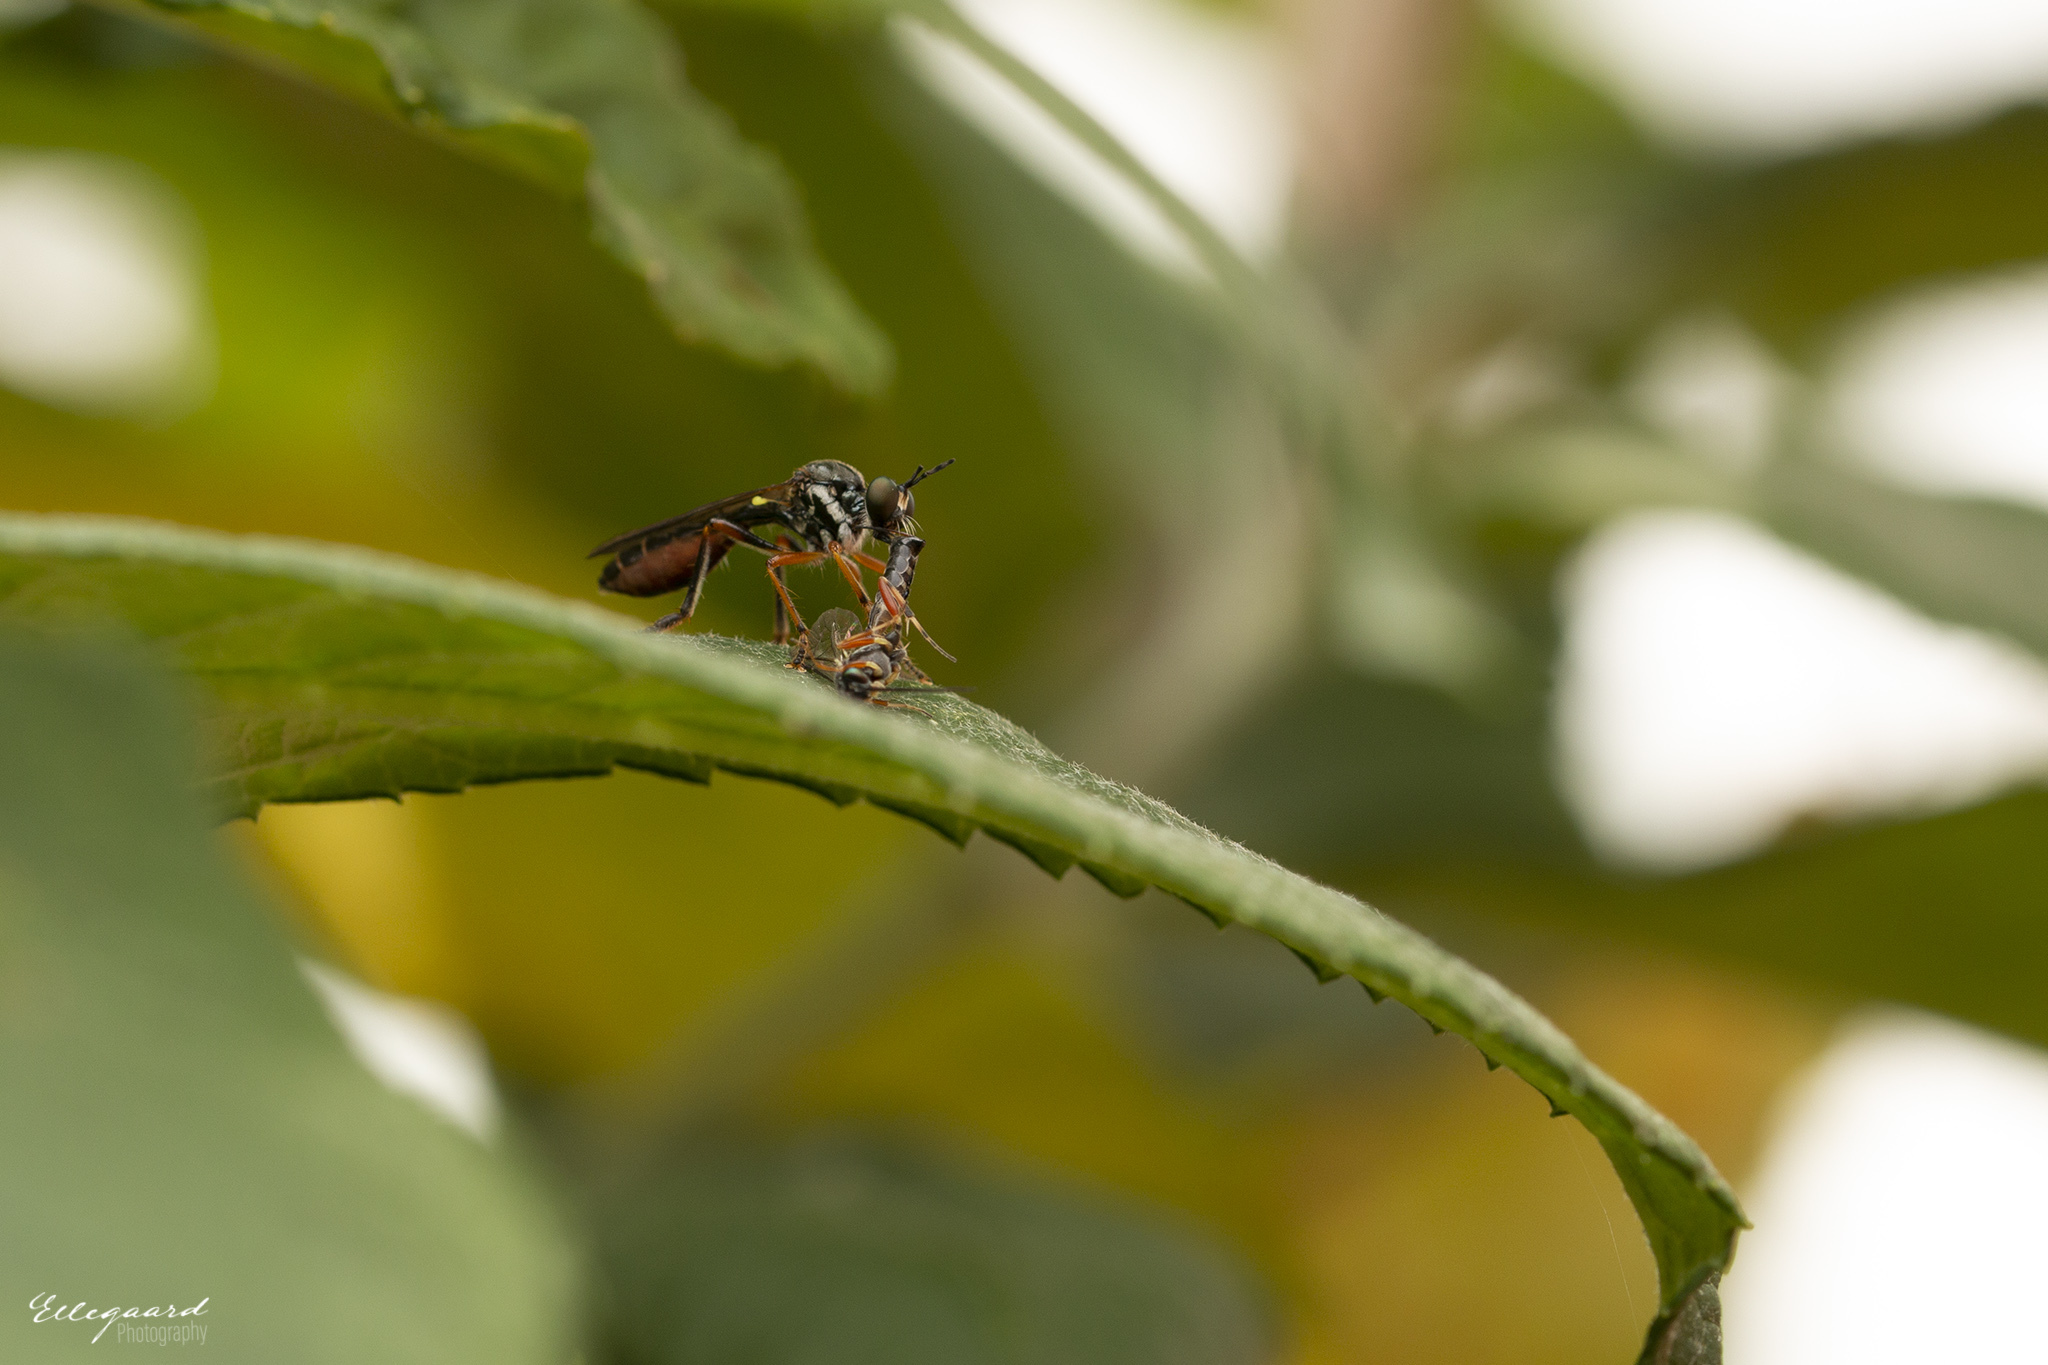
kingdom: Animalia
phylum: Arthropoda
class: Insecta
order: Diptera
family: Asilidae
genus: Dioctria
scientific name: Dioctria hyalipennis
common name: Stripe-legged robberfly
